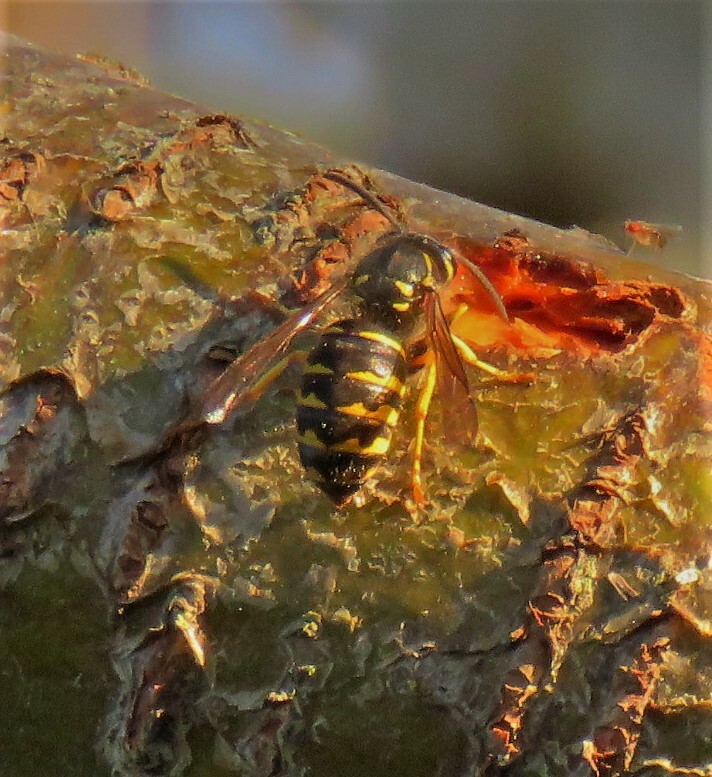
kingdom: Animalia
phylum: Arthropoda
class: Insecta
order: Hymenoptera
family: Vespidae
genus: Dolichovespula
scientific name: Dolichovespula arenaria
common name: Aerial yellowjacket
